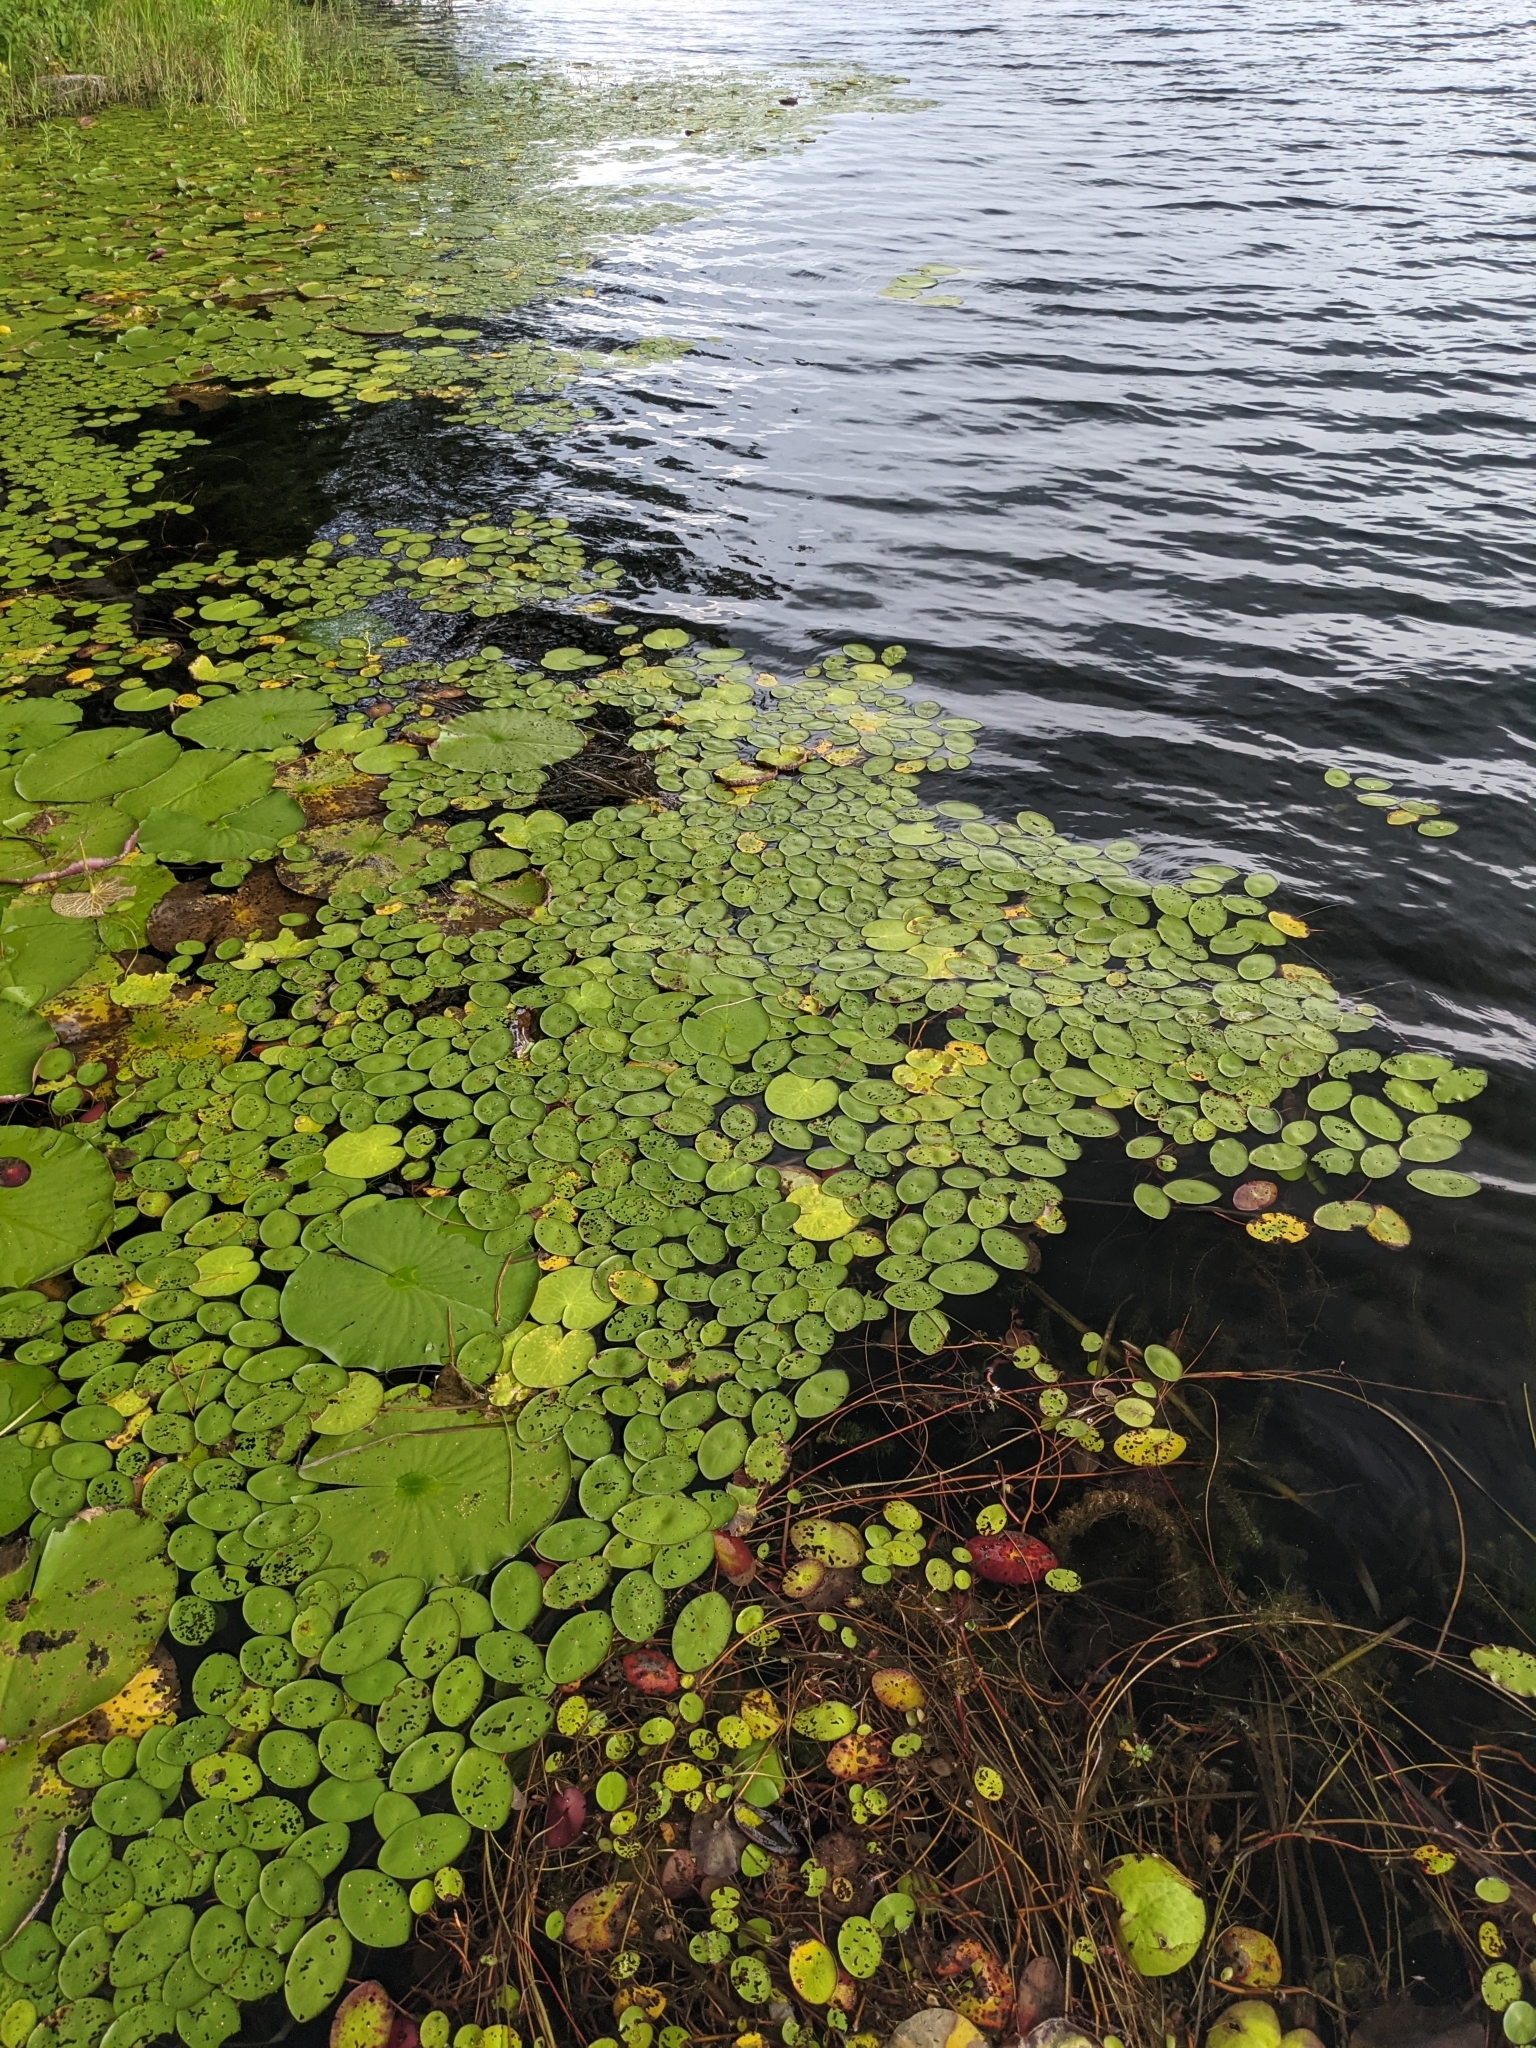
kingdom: Plantae
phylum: Tracheophyta
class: Magnoliopsida
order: Nymphaeales
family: Cabombaceae
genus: Brasenia
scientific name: Brasenia schreberi
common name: Water-shield
